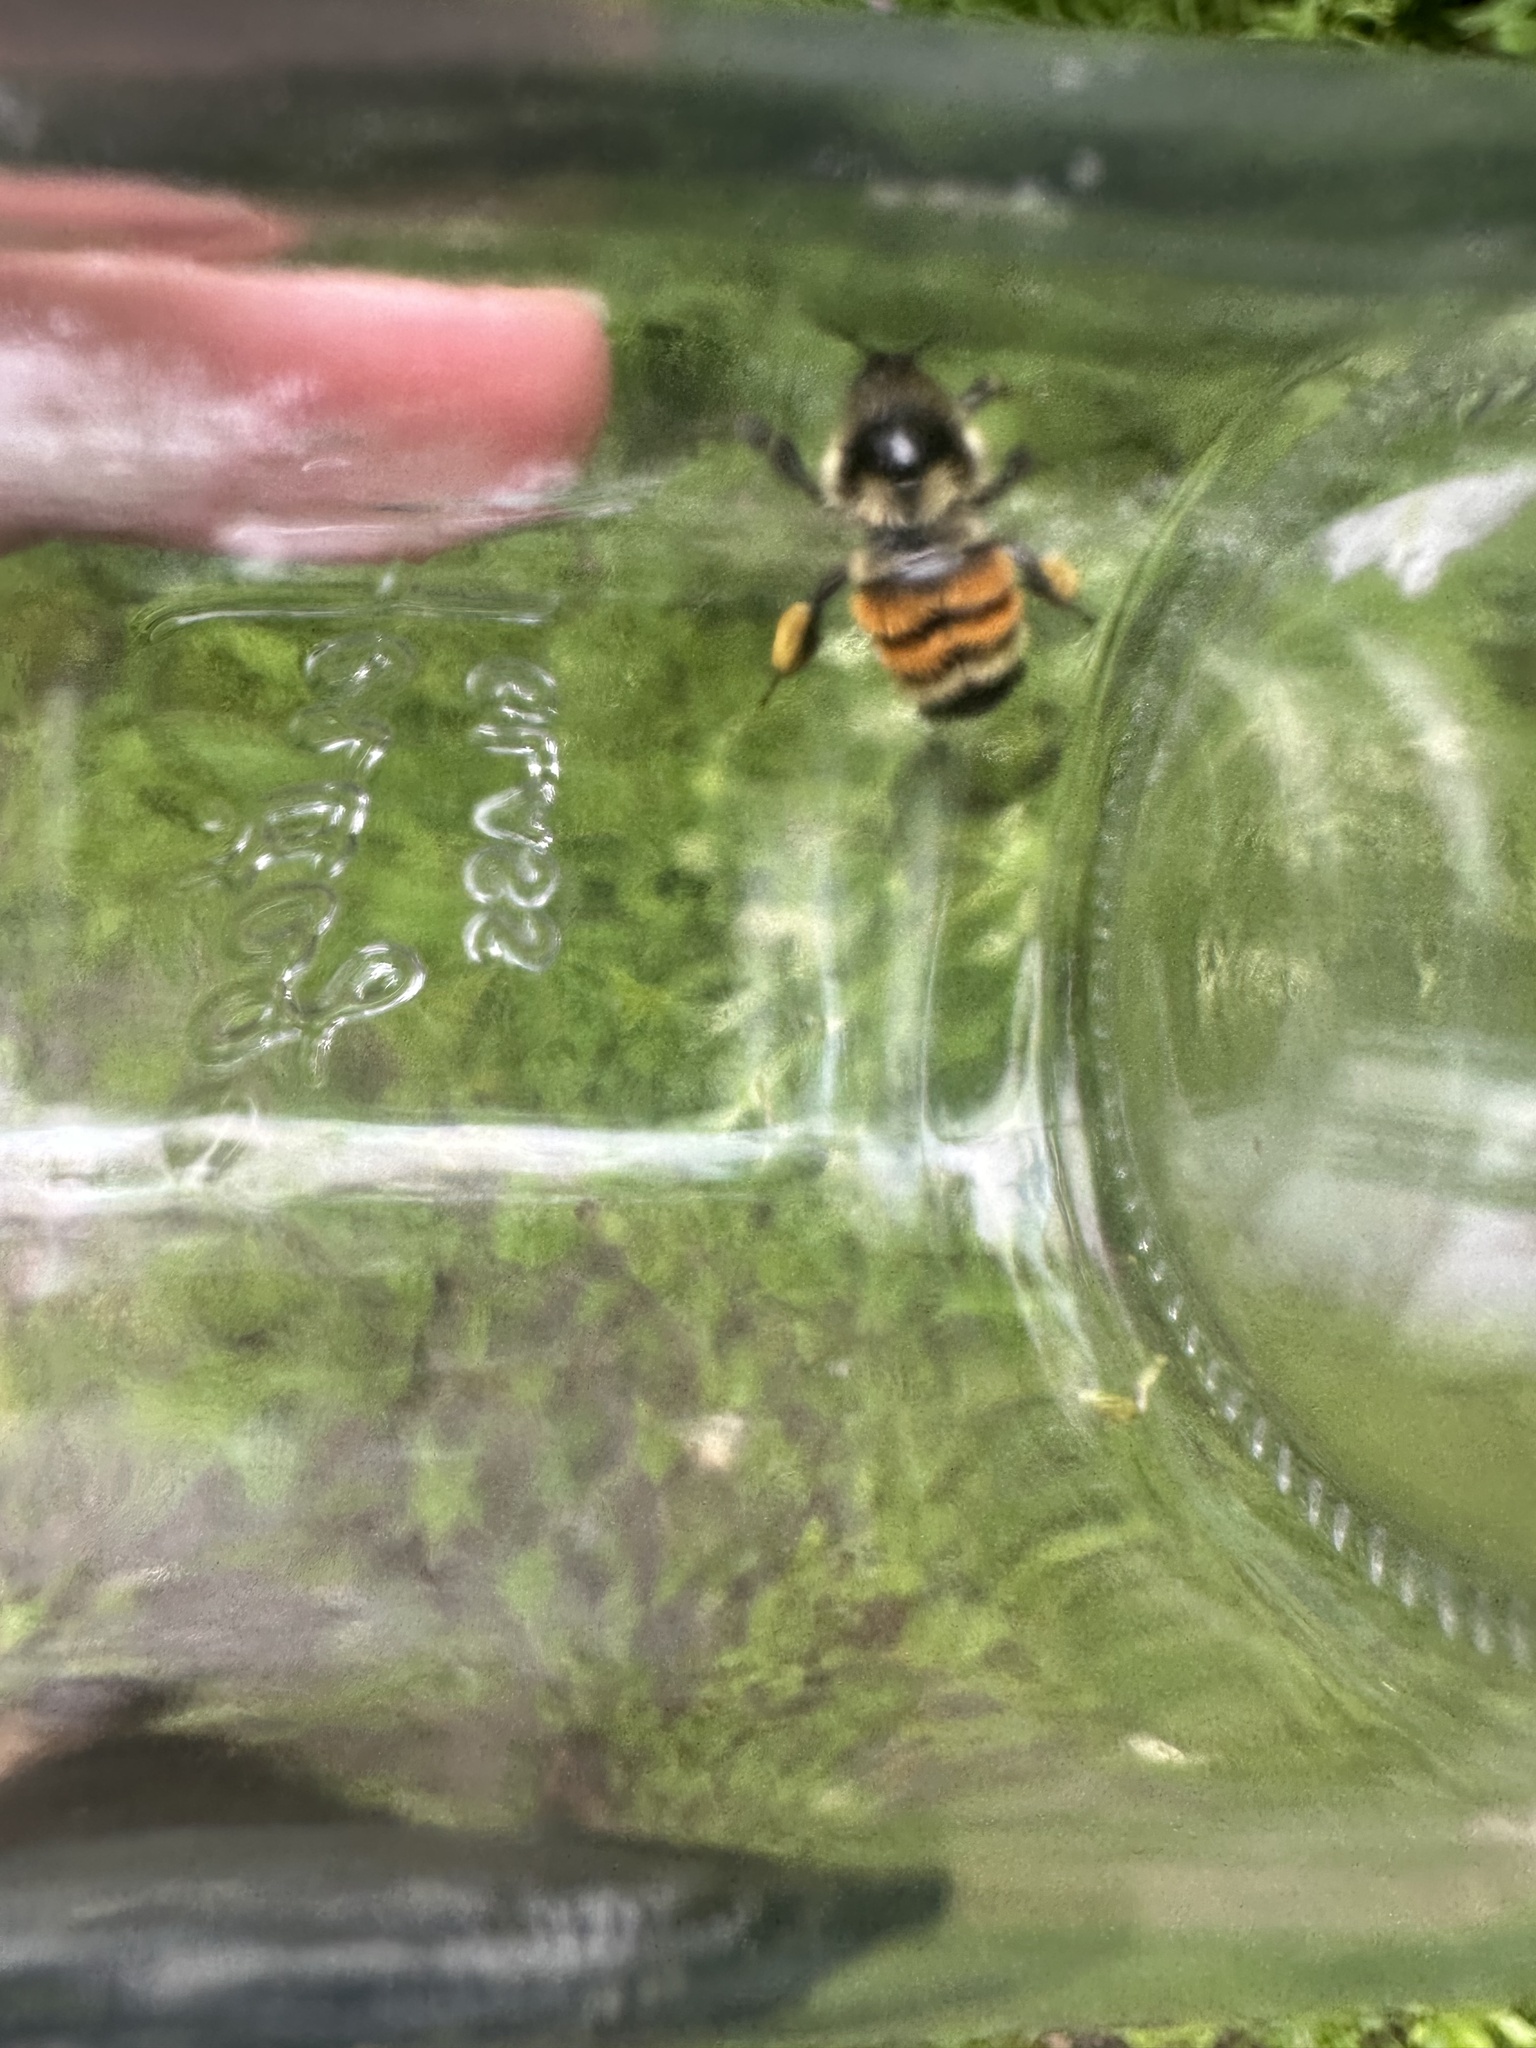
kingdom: Animalia
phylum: Arthropoda
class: Insecta
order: Hymenoptera
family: Apidae
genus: Bombus
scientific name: Bombus ternarius
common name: Tri-colored bumble bee
